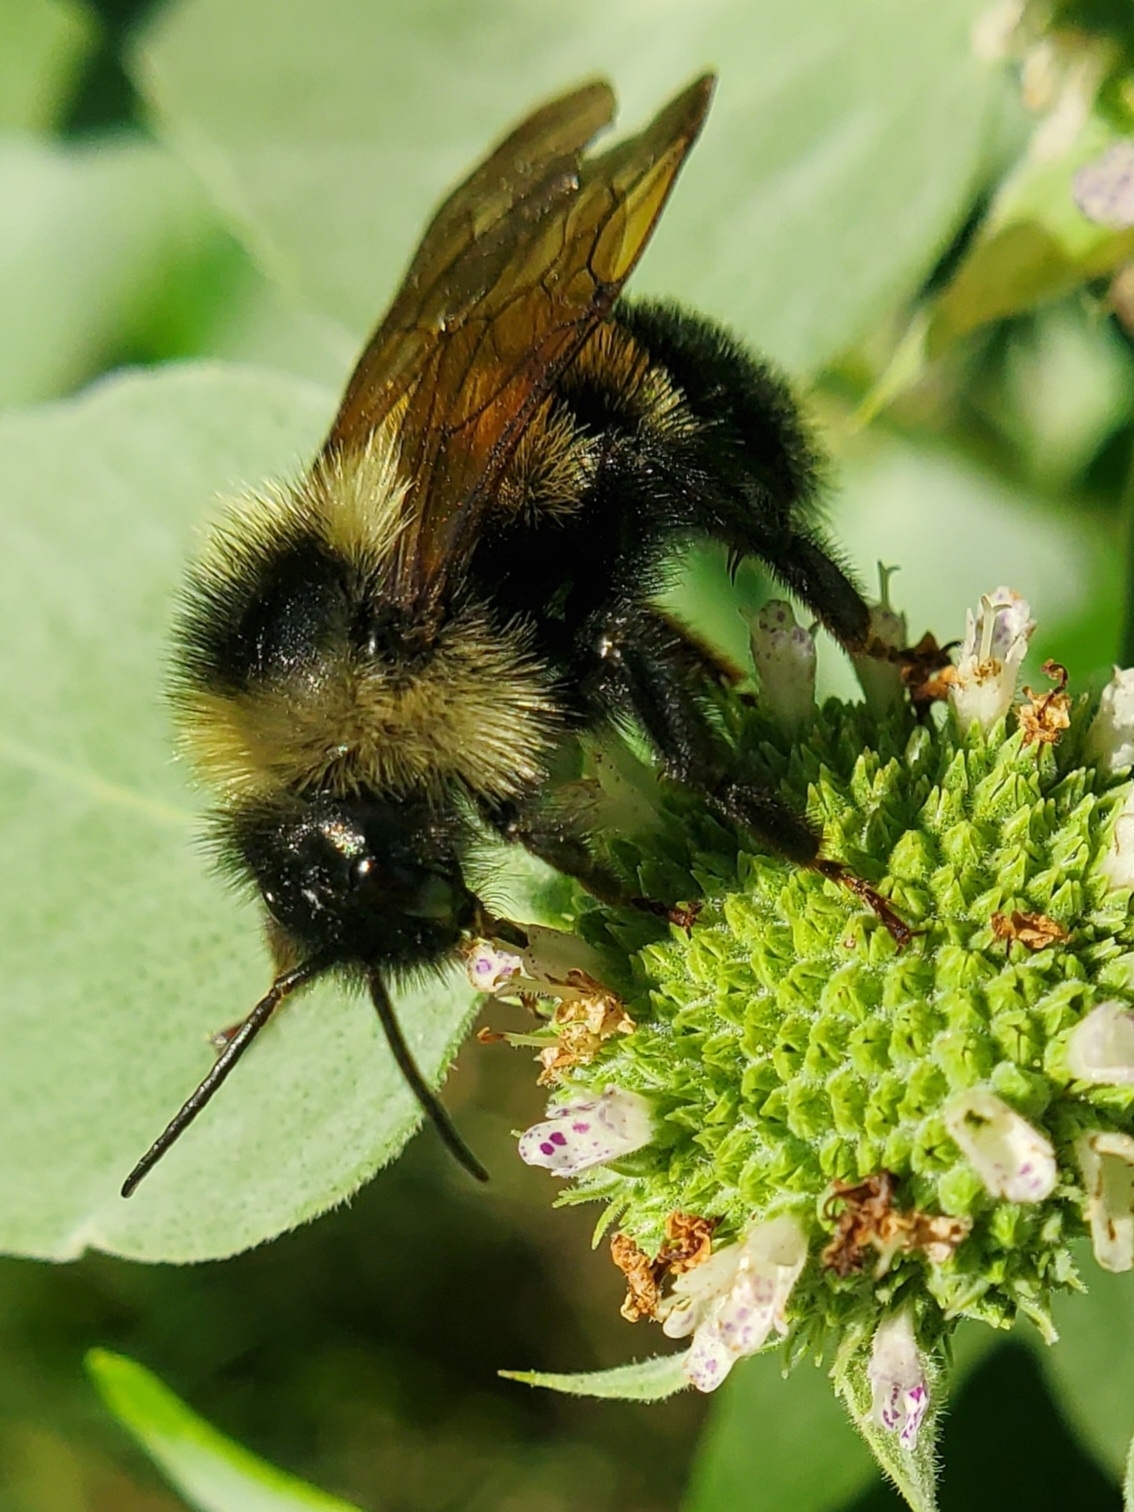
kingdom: Animalia
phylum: Arthropoda
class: Insecta
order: Hymenoptera
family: Apidae
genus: Bombus
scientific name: Bombus citrinus
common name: Lemon cuckoo bumble bee
